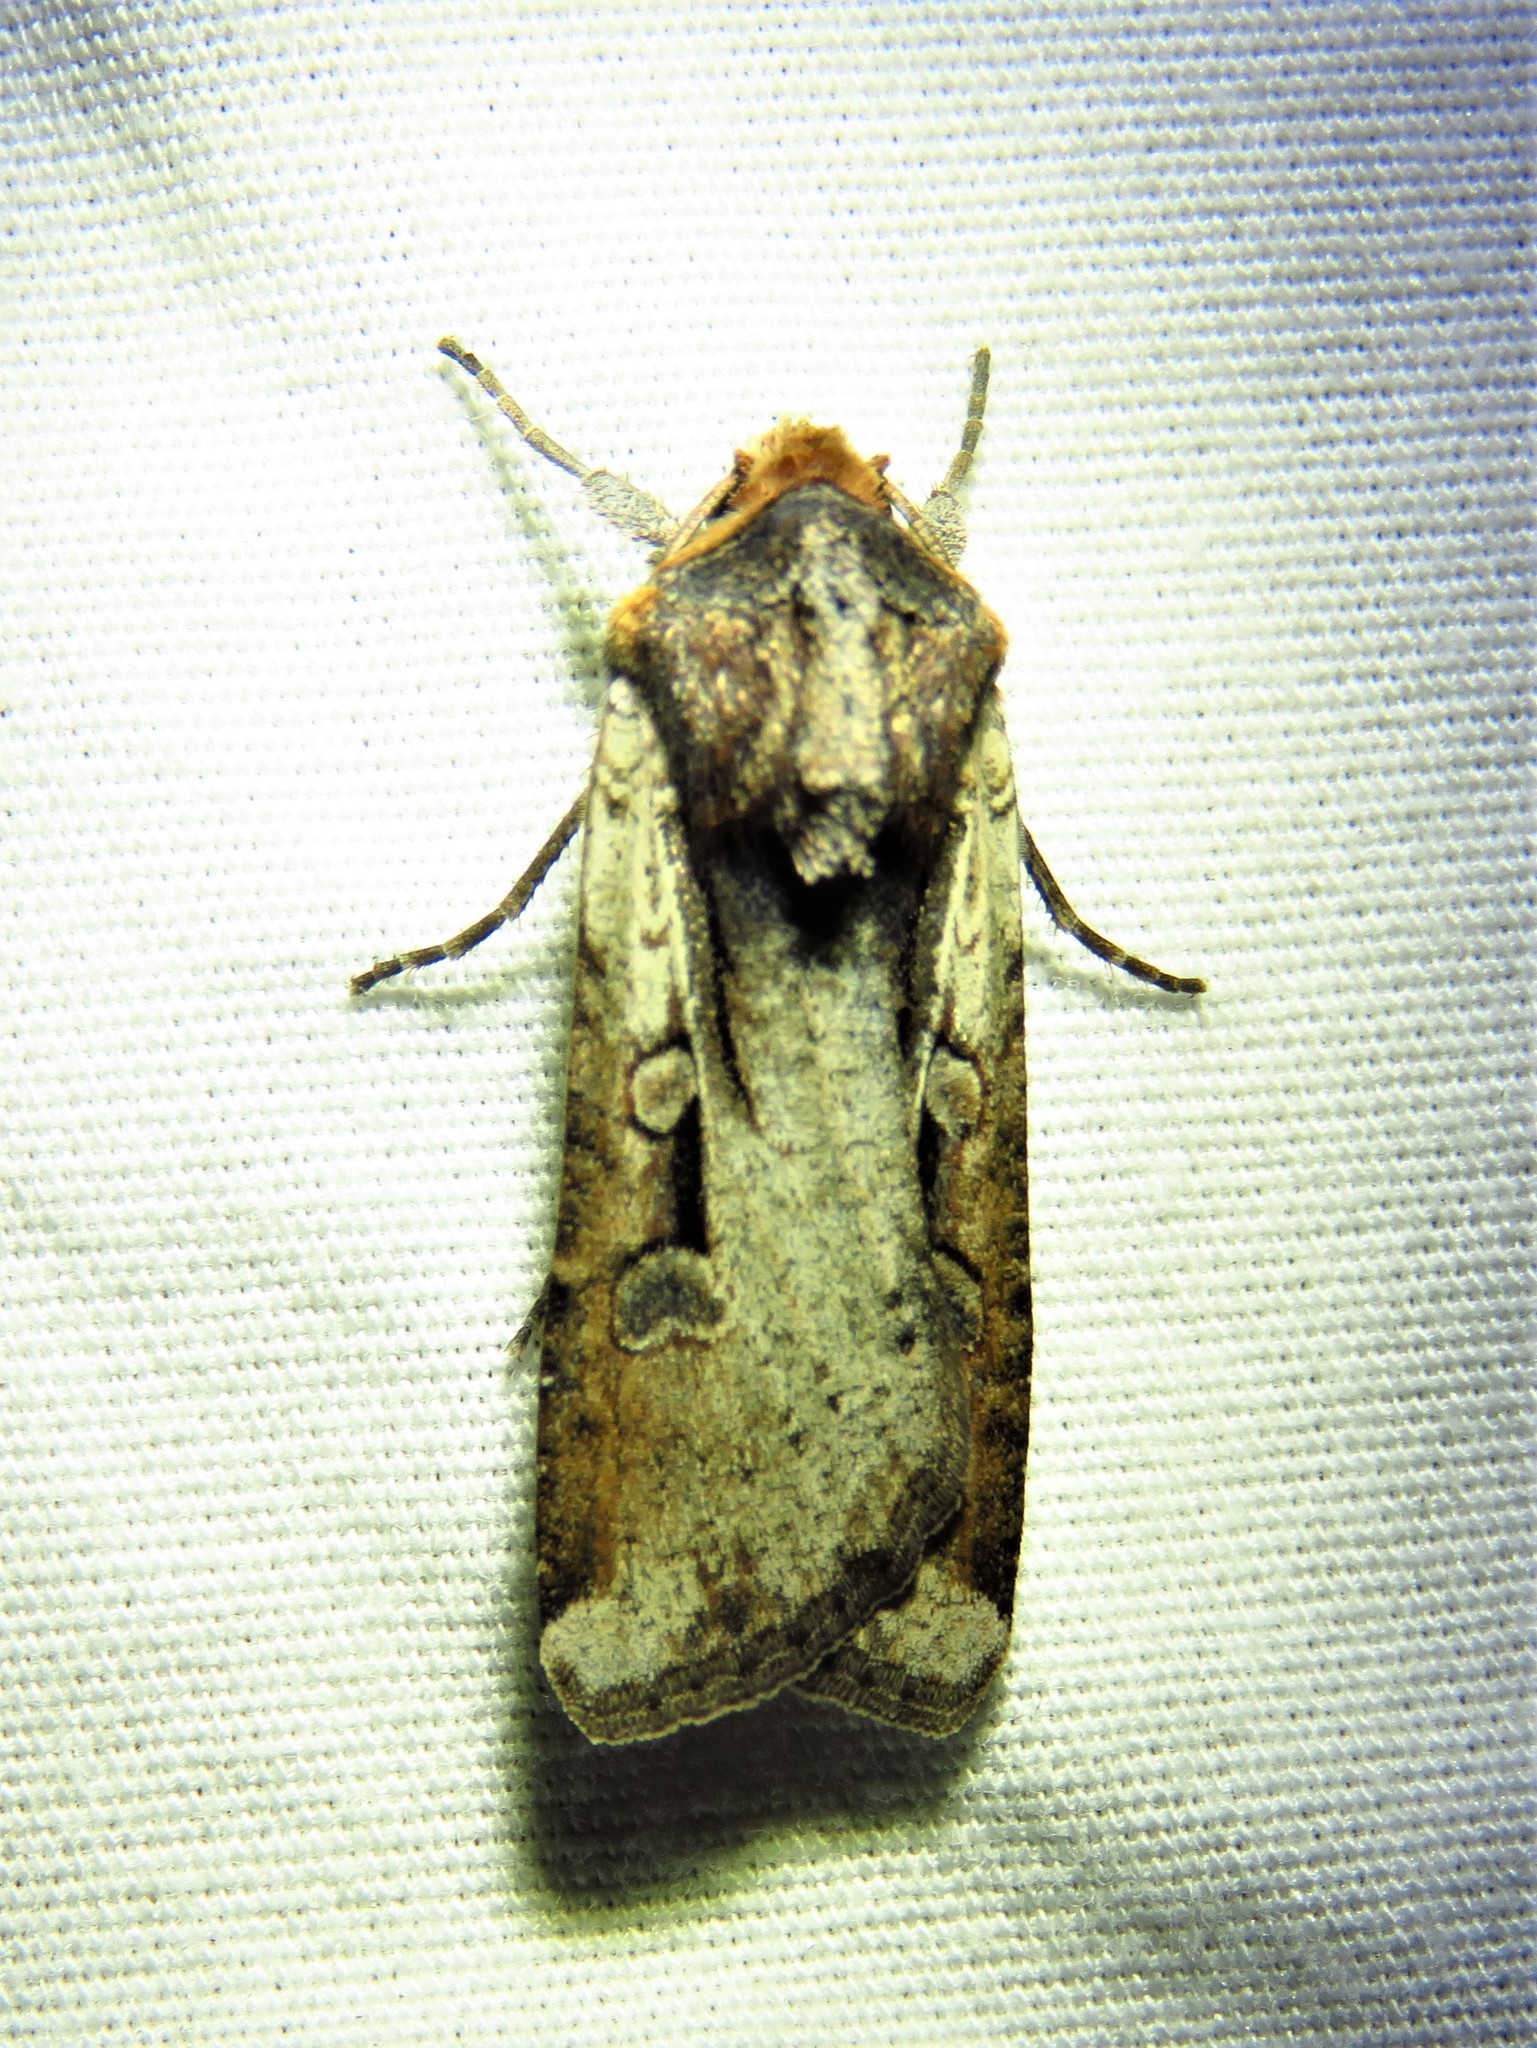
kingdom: Animalia
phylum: Arthropoda
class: Insecta
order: Lepidoptera
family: Noctuidae
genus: Hemieuxoa
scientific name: Hemieuxoa rudens
